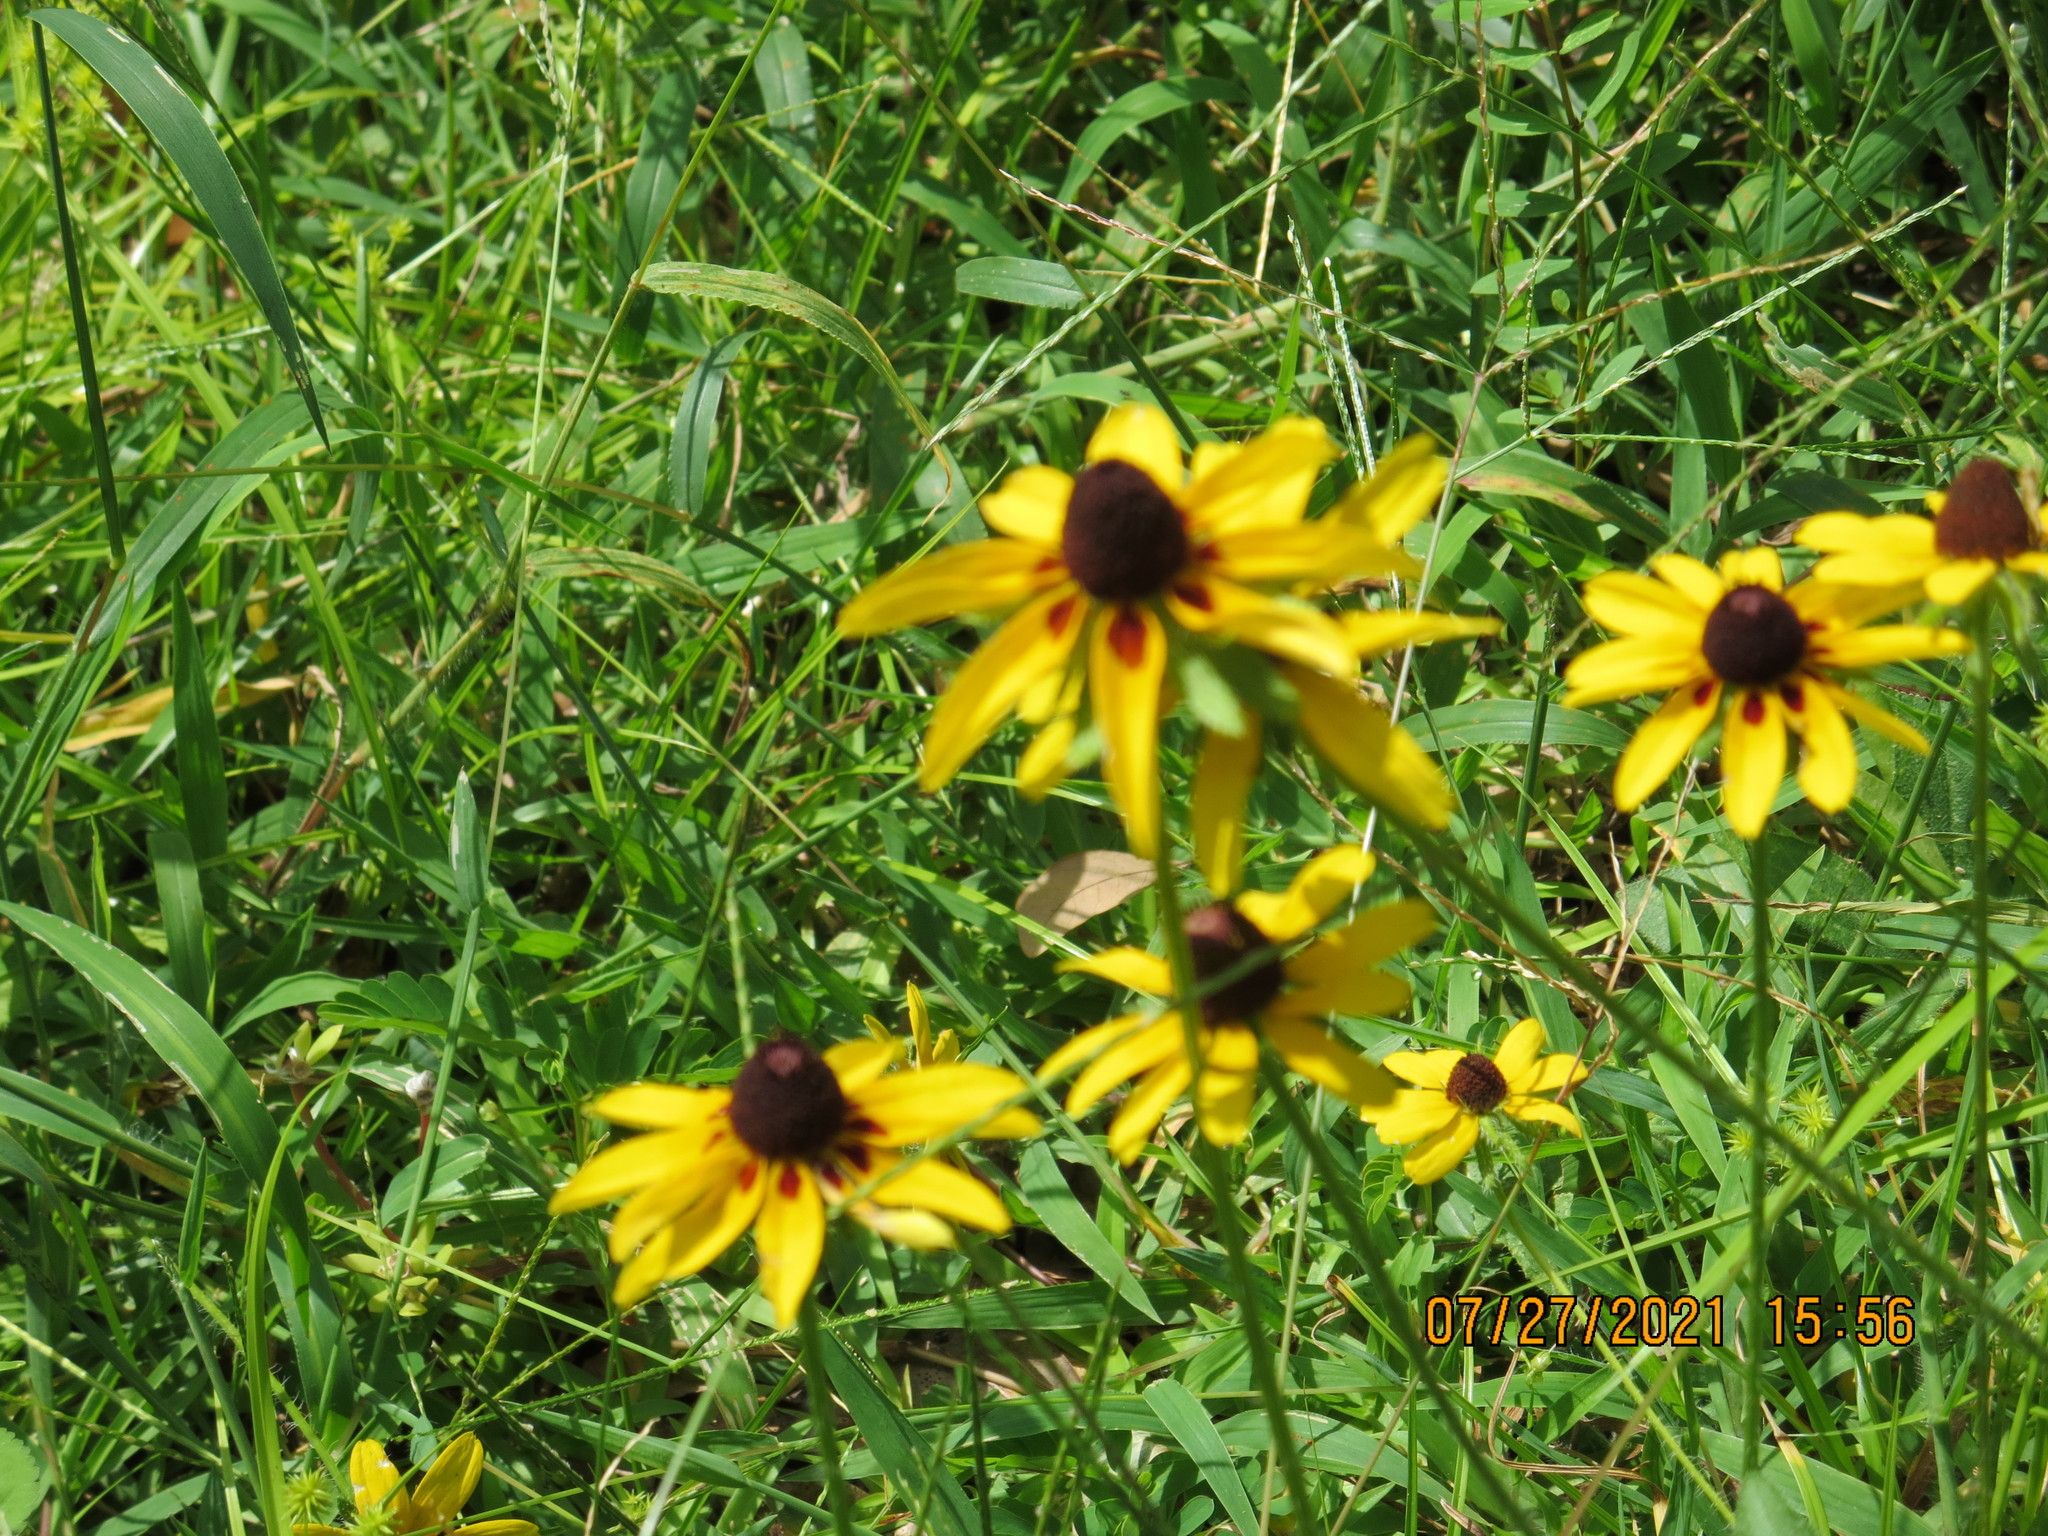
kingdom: Plantae
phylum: Tracheophyta
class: Magnoliopsida
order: Asterales
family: Asteraceae
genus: Rudbeckia
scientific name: Rudbeckia hirta
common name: Black-eyed-susan
